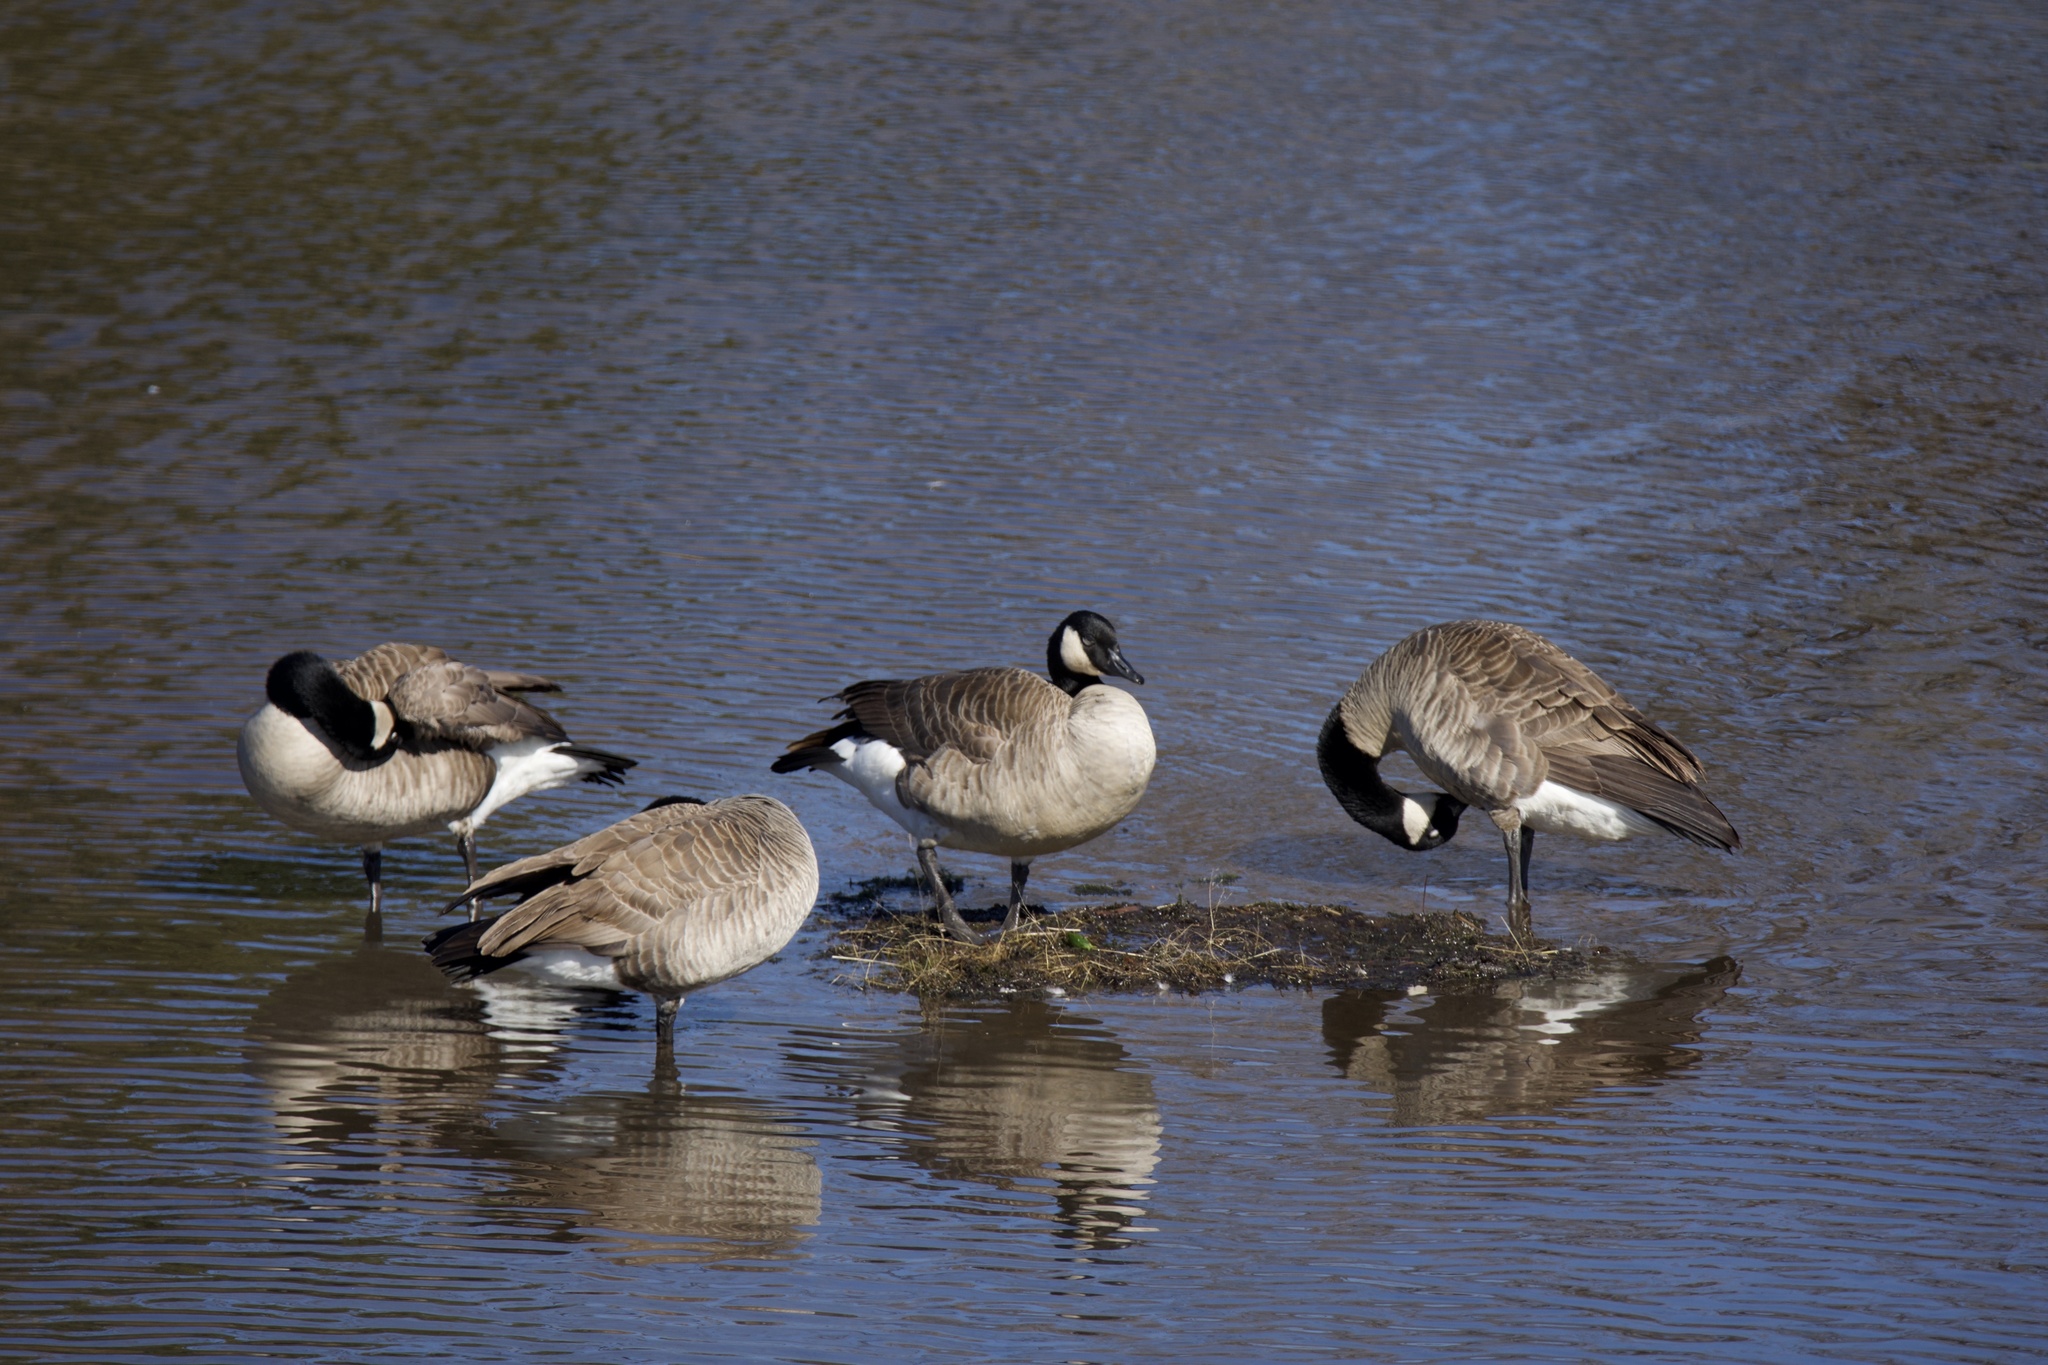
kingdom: Animalia
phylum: Chordata
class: Aves
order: Anseriformes
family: Anatidae
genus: Branta
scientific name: Branta canadensis
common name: Canada goose
